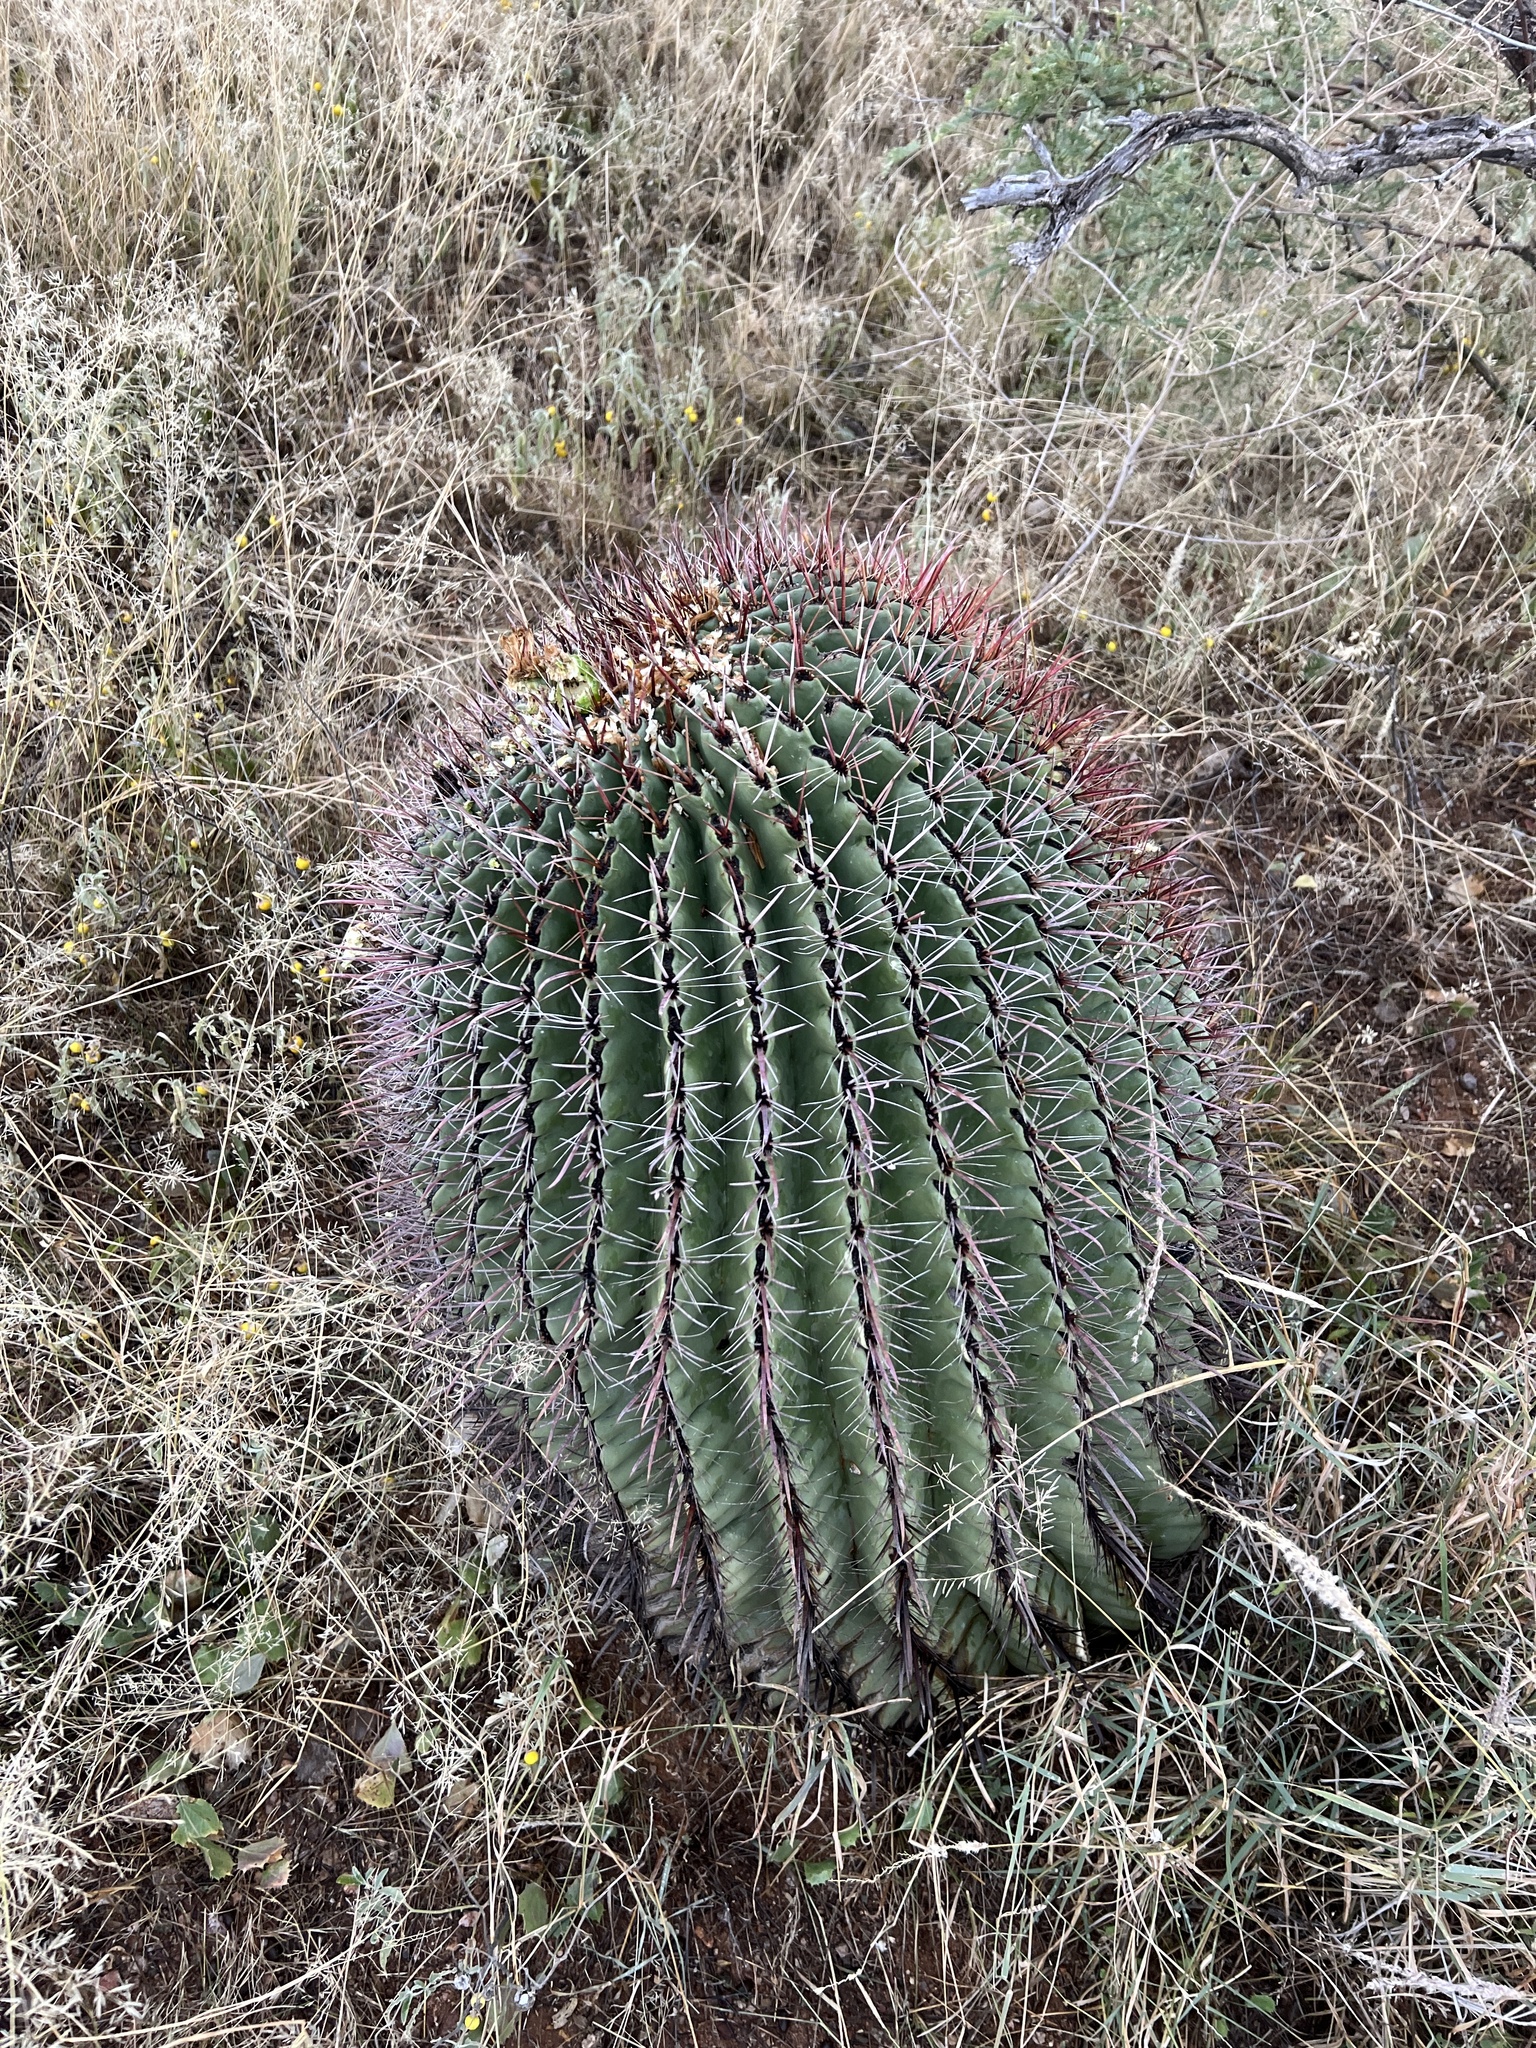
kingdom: Plantae
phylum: Tracheophyta
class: Magnoliopsida
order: Caryophyllales
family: Cactaceae
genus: Ferocactus
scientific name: Ferocactus wislizeni
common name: Candy barrel cactus
